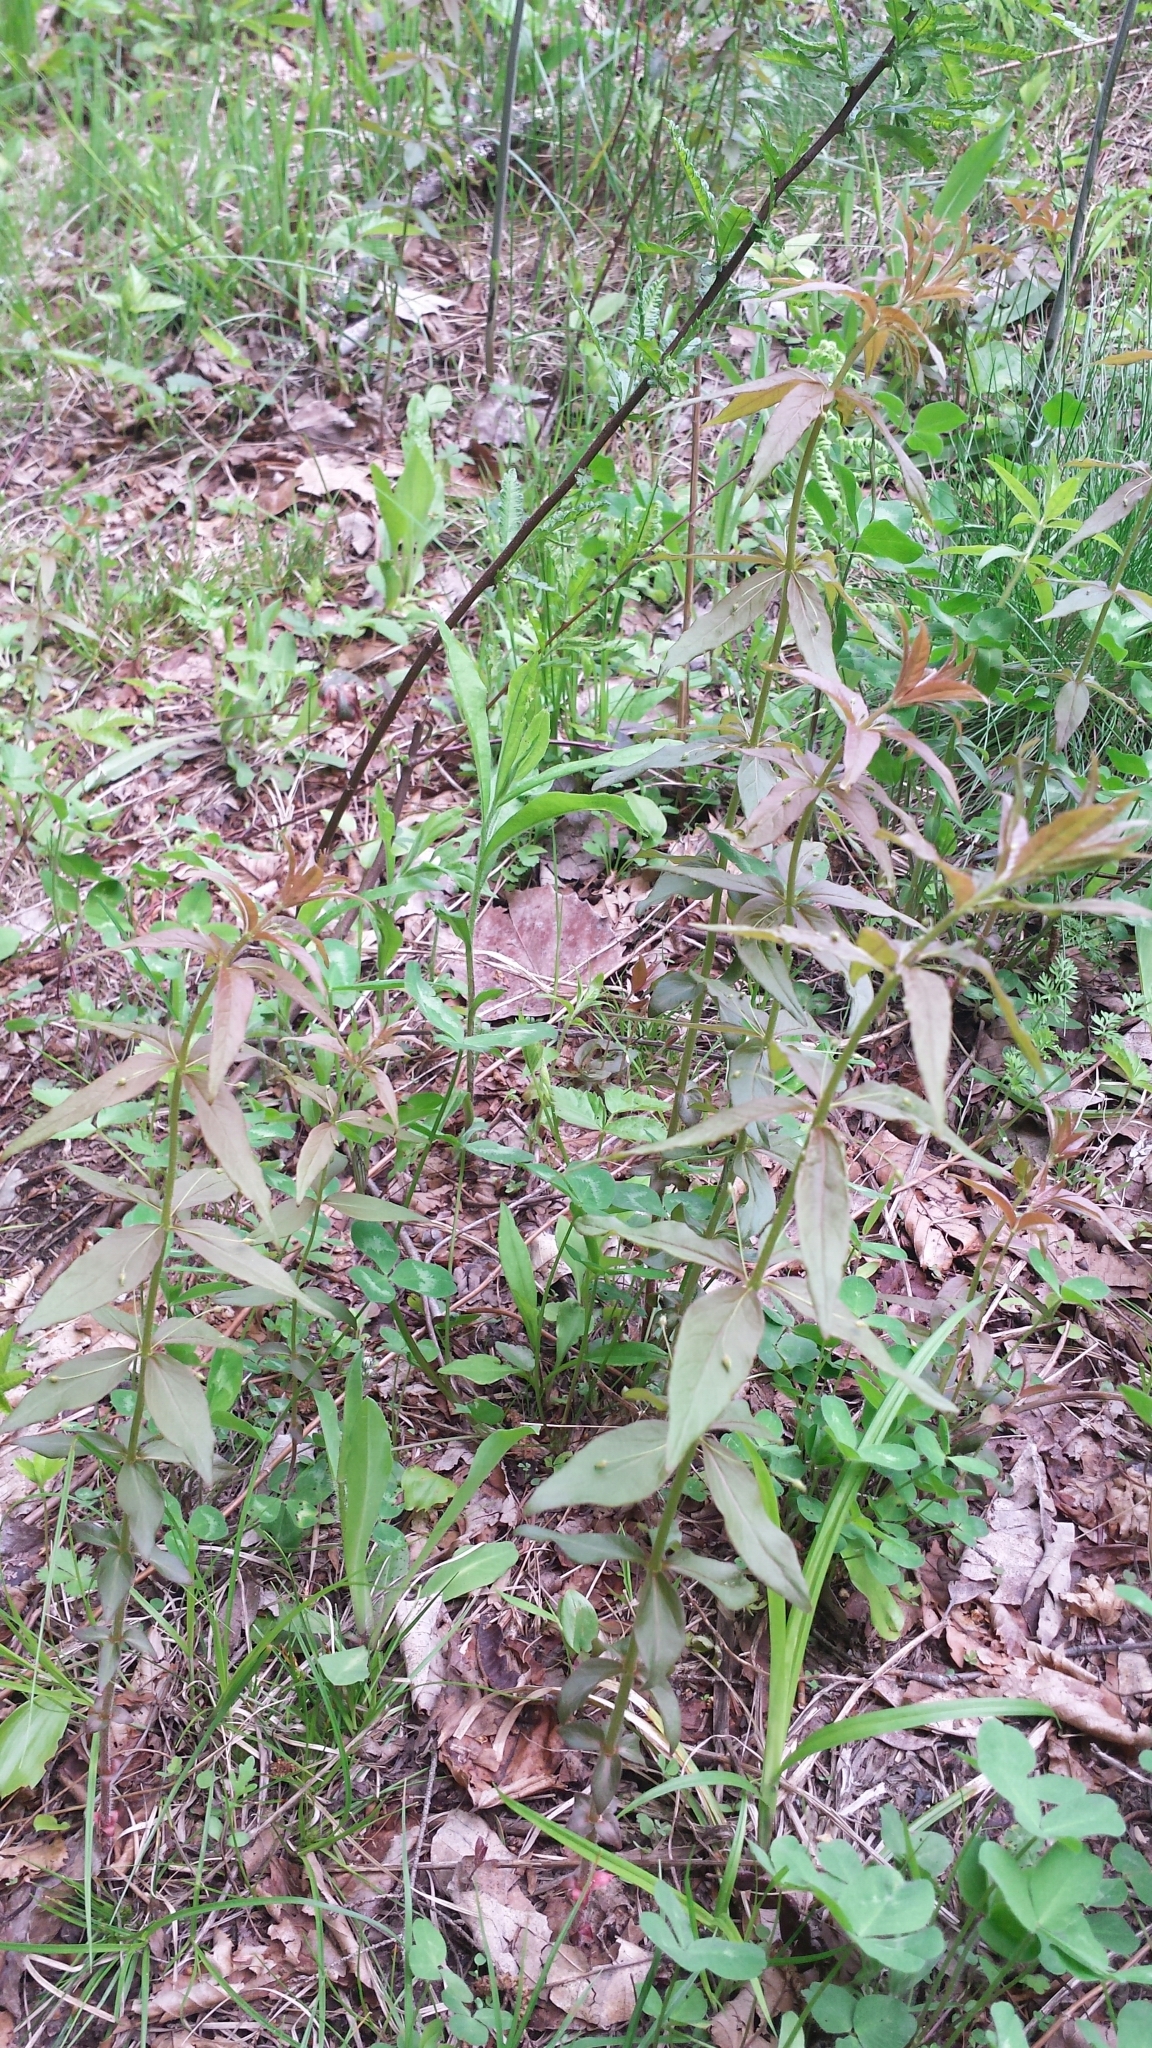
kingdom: Plantae
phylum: Tracheophyta
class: Magnoliopsida
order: Ericales
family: Primulaceae
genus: Lysimachia
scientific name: Lysimachia quadrifolia
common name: Whorled loosestrife
